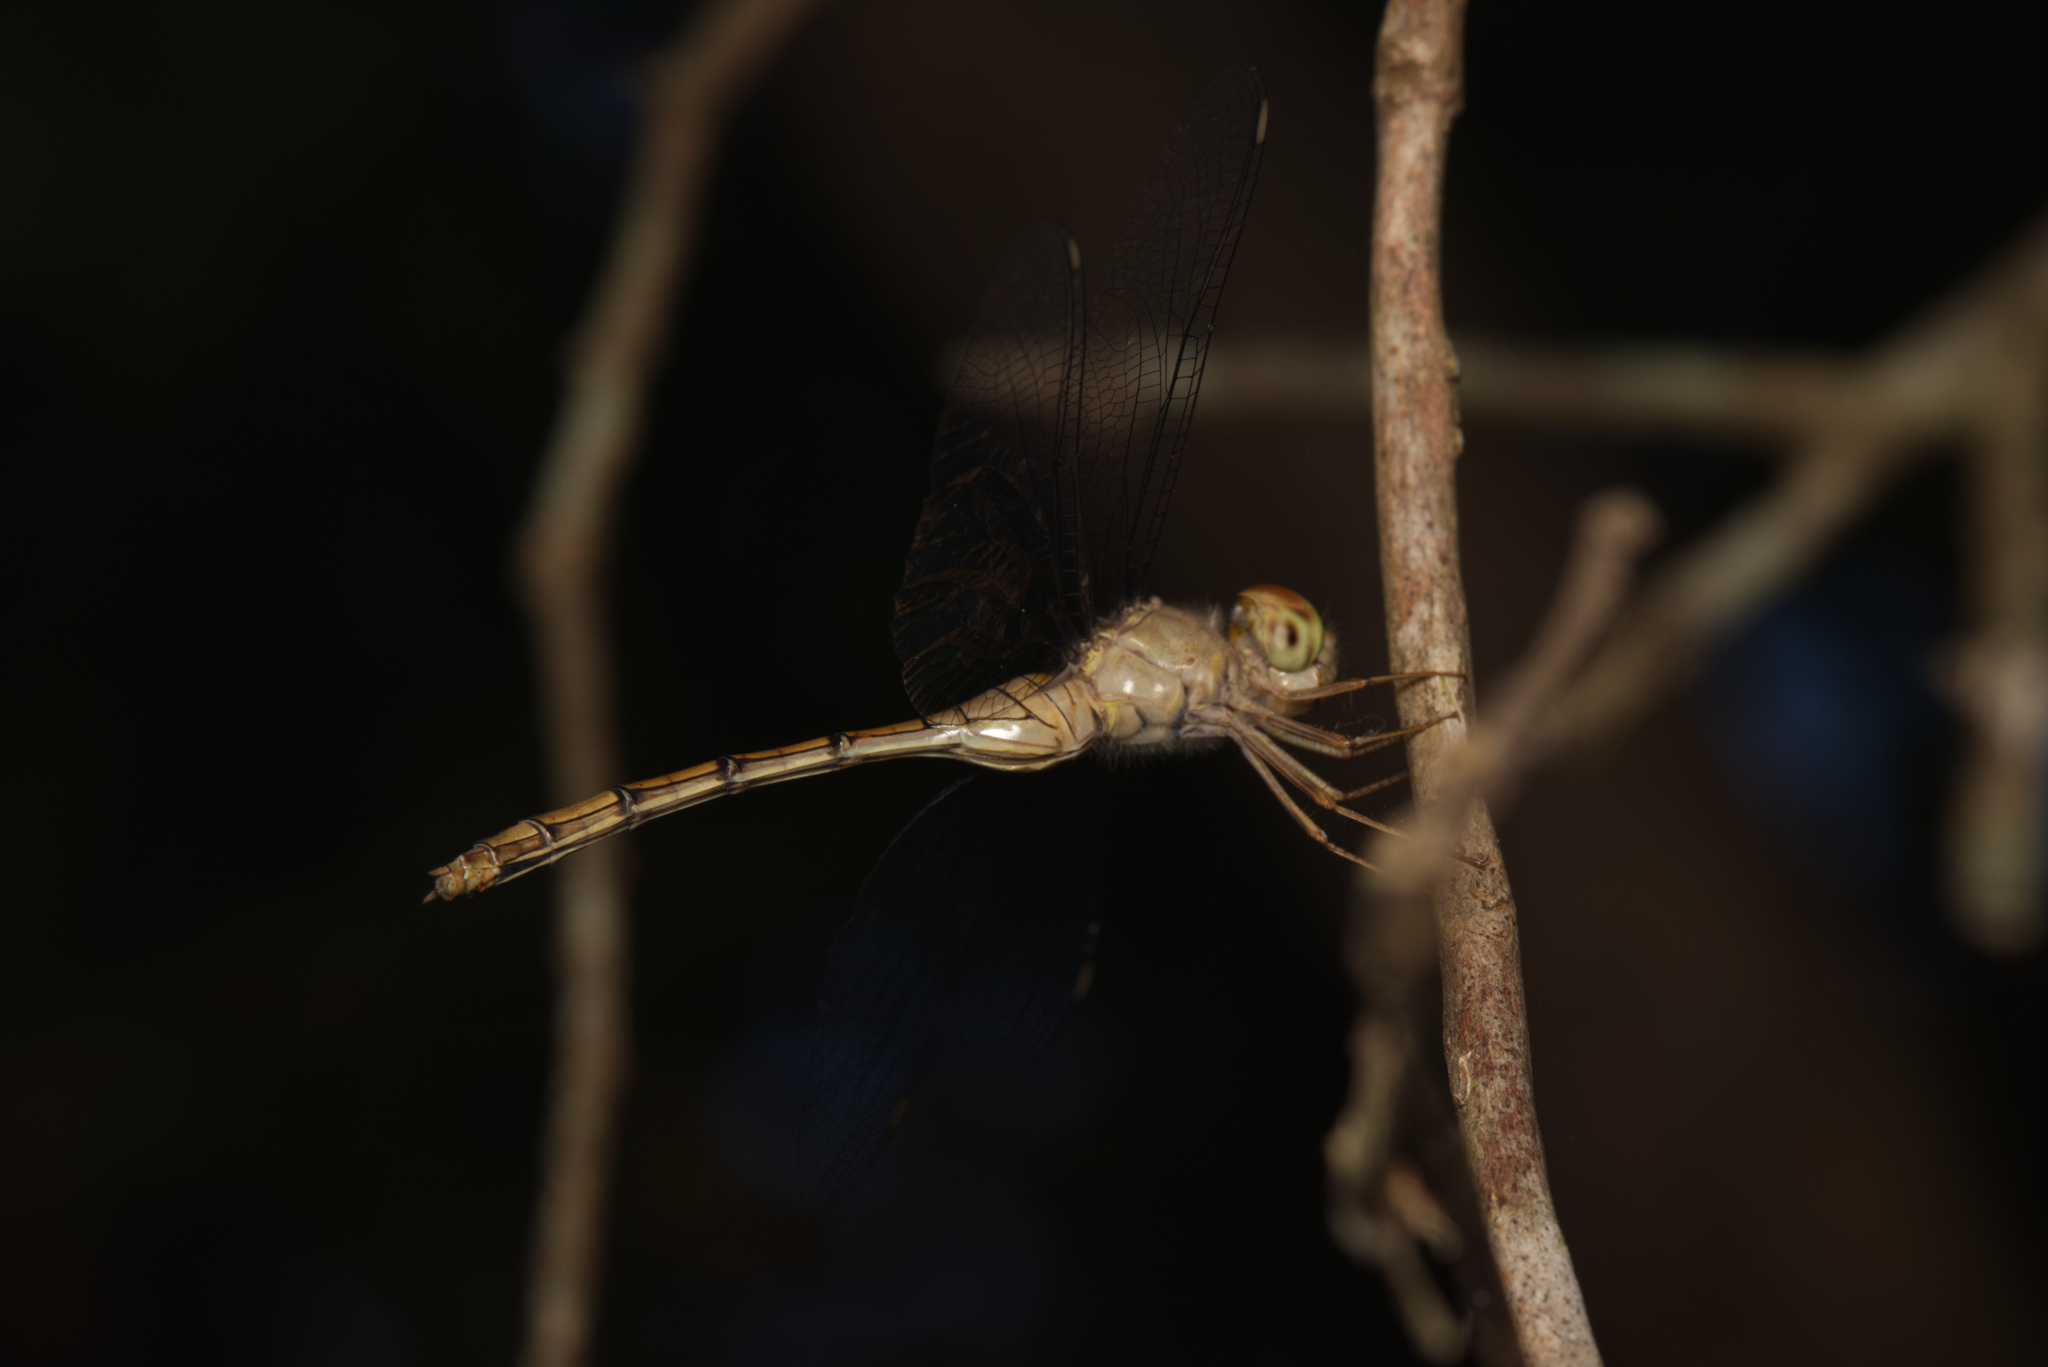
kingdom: Animalia
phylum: Arthropoda
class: Insecta
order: Odonata
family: Libellulidae
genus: Zyxomma
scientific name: Zyxomma elgneri
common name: Short-tailed duskdarter
